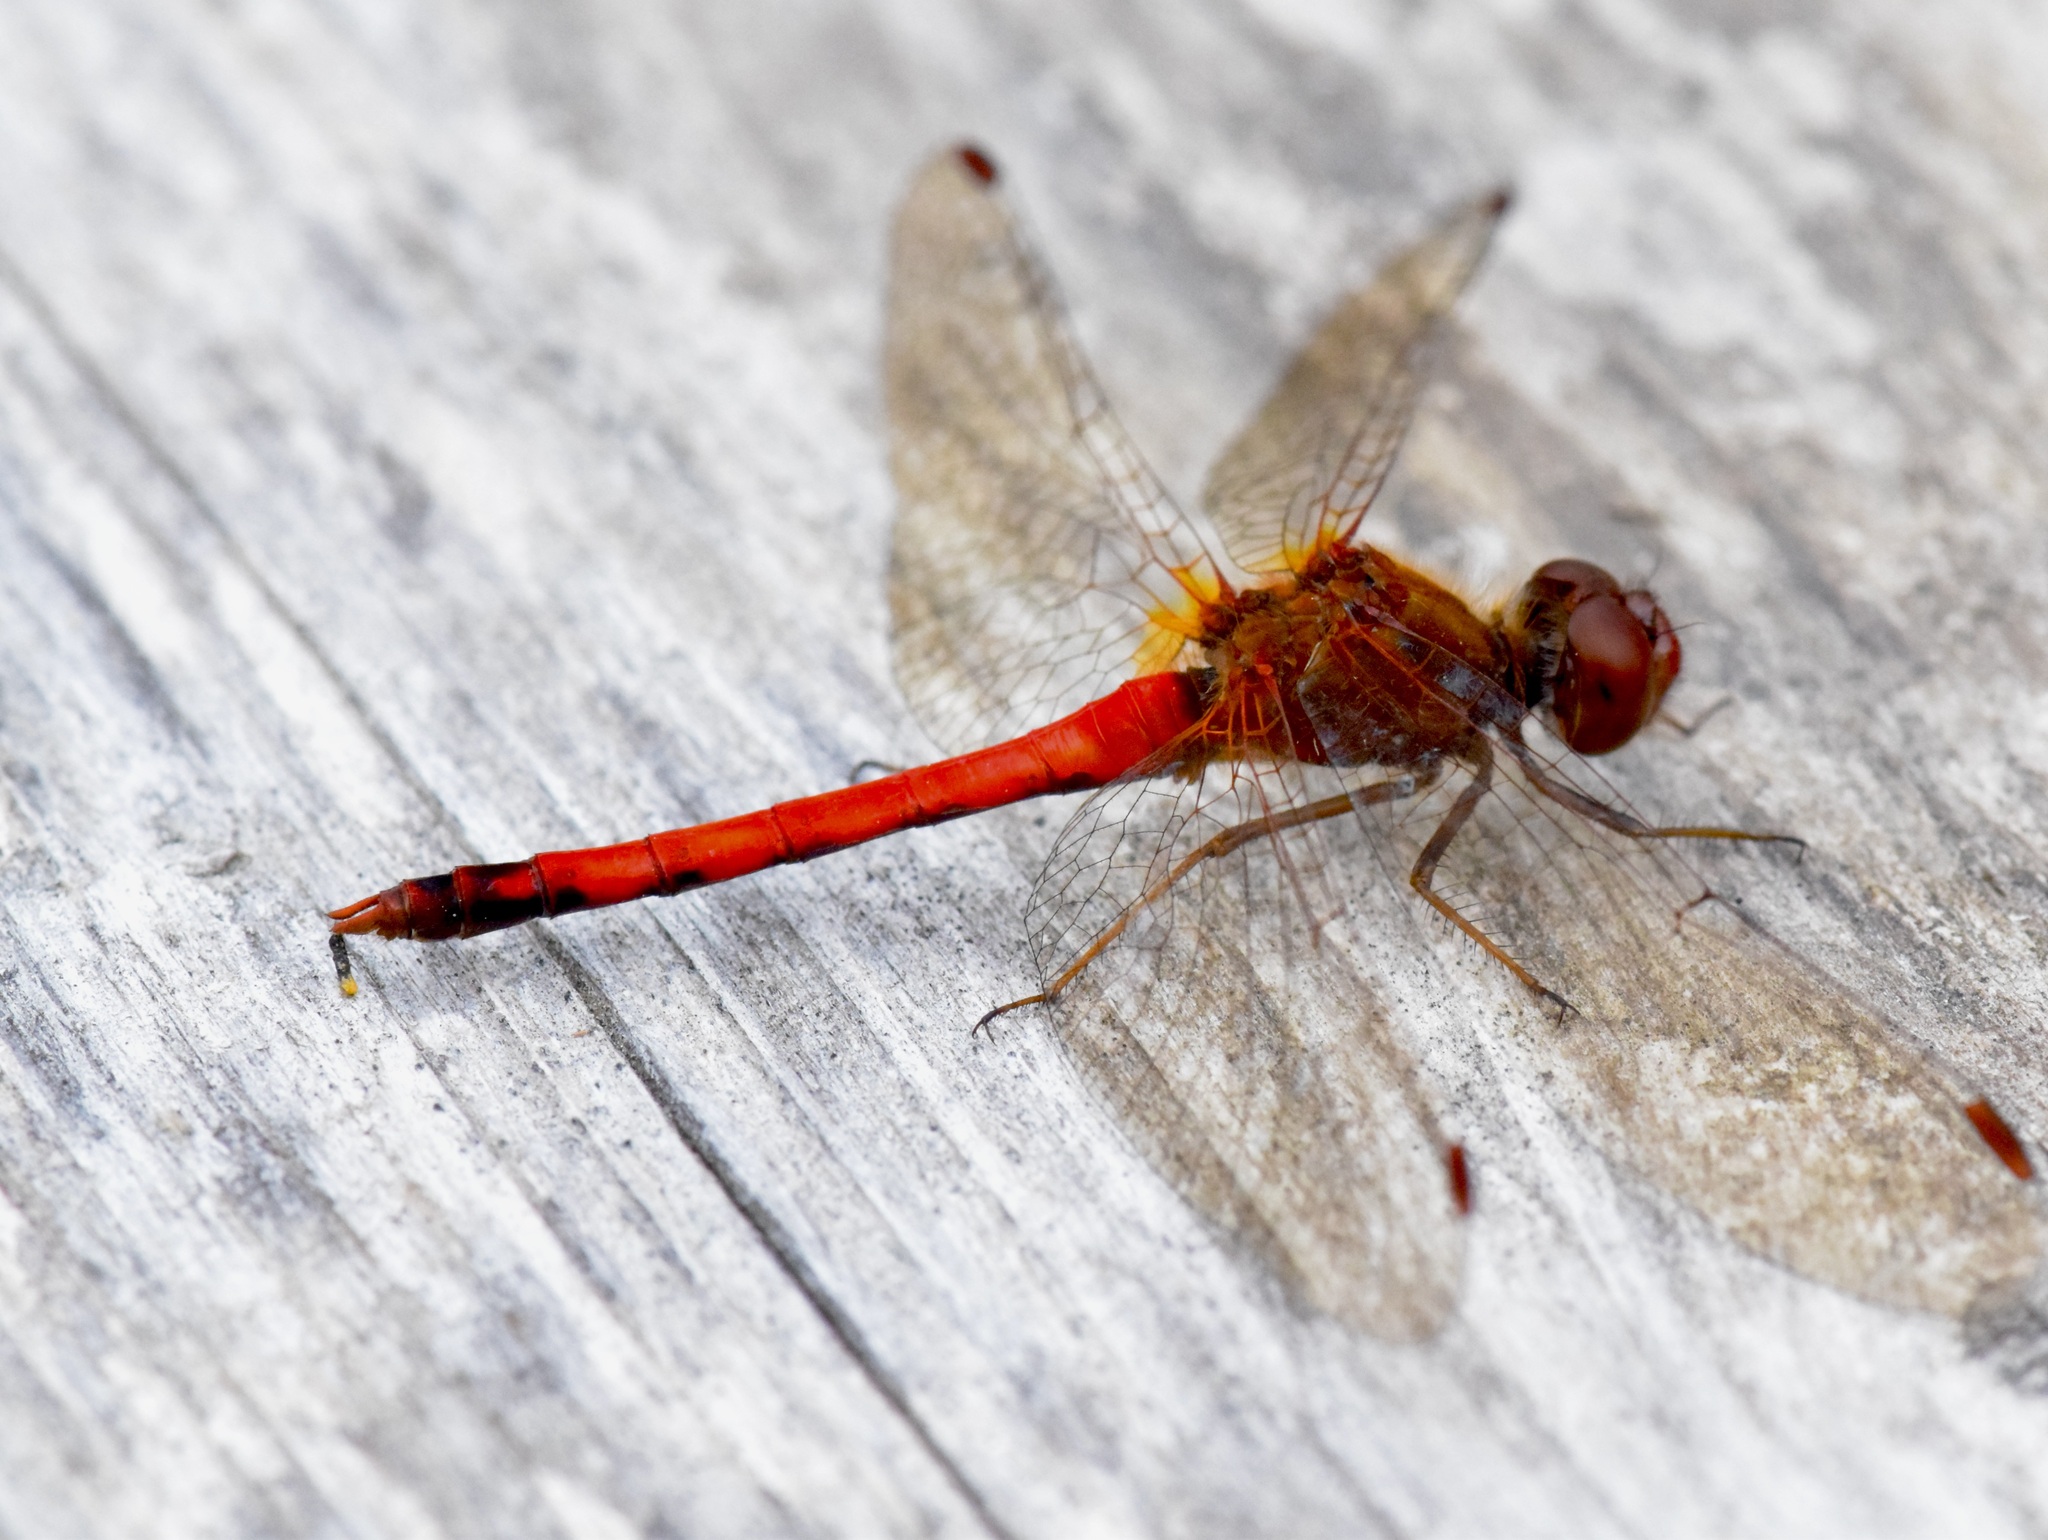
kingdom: Animalia
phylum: Arthropoda
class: Insecta
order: Odonata
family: Libellulidae
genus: Sympetrum
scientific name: Sympetrum vicinum
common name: Autumn meadowhawk
